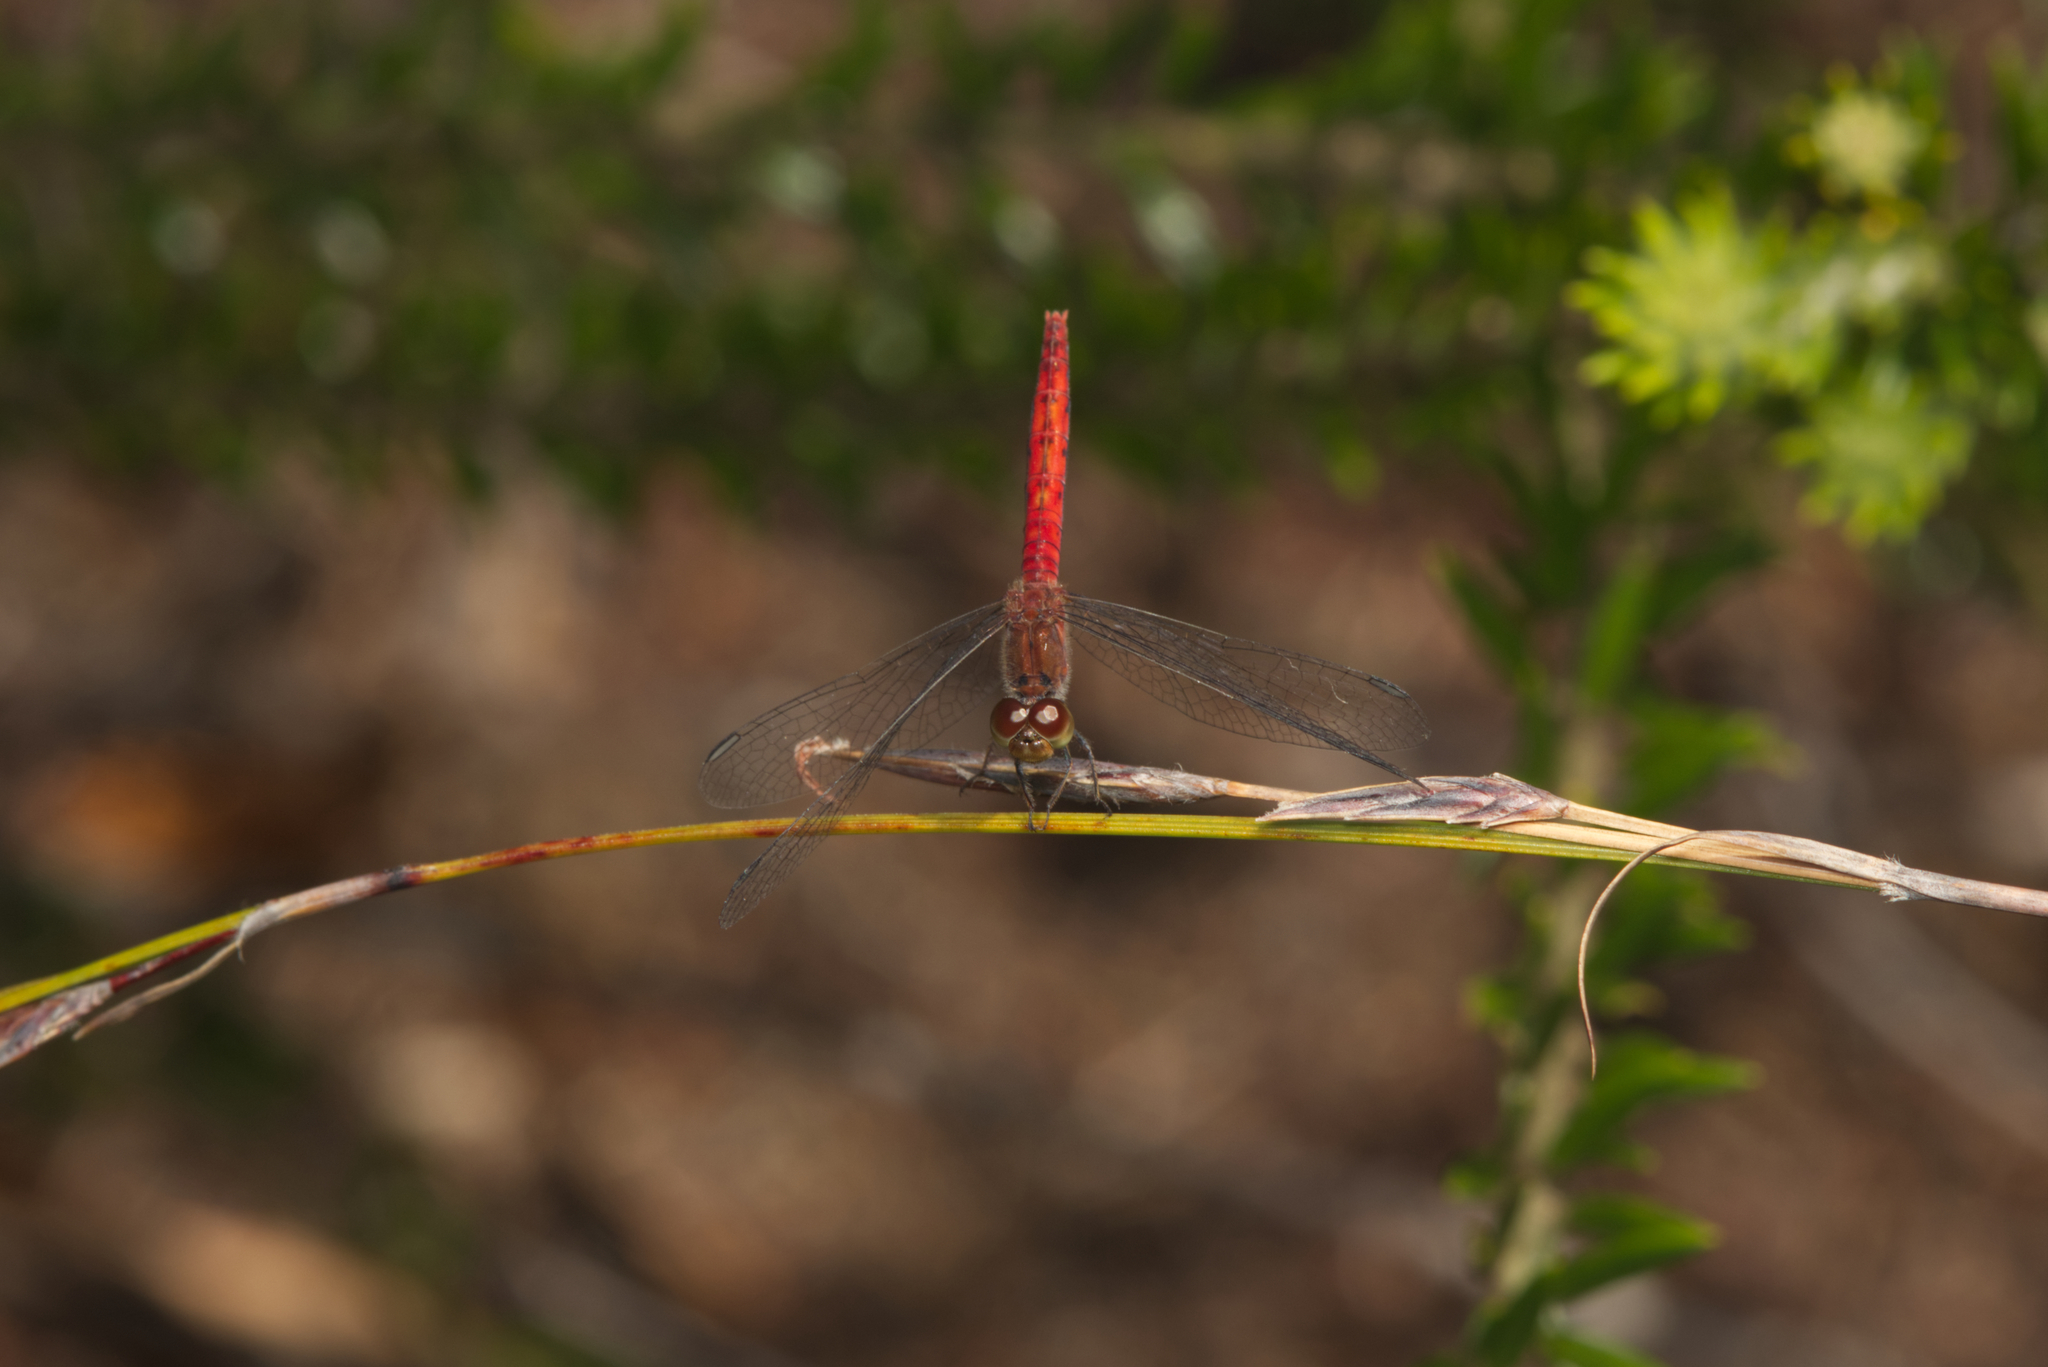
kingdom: Animalia
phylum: Arthropoda
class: Insecta
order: Odonata
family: Libellulidae
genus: Nannodiplax
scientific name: Nannodiplax rubra
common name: Pygmy percher
